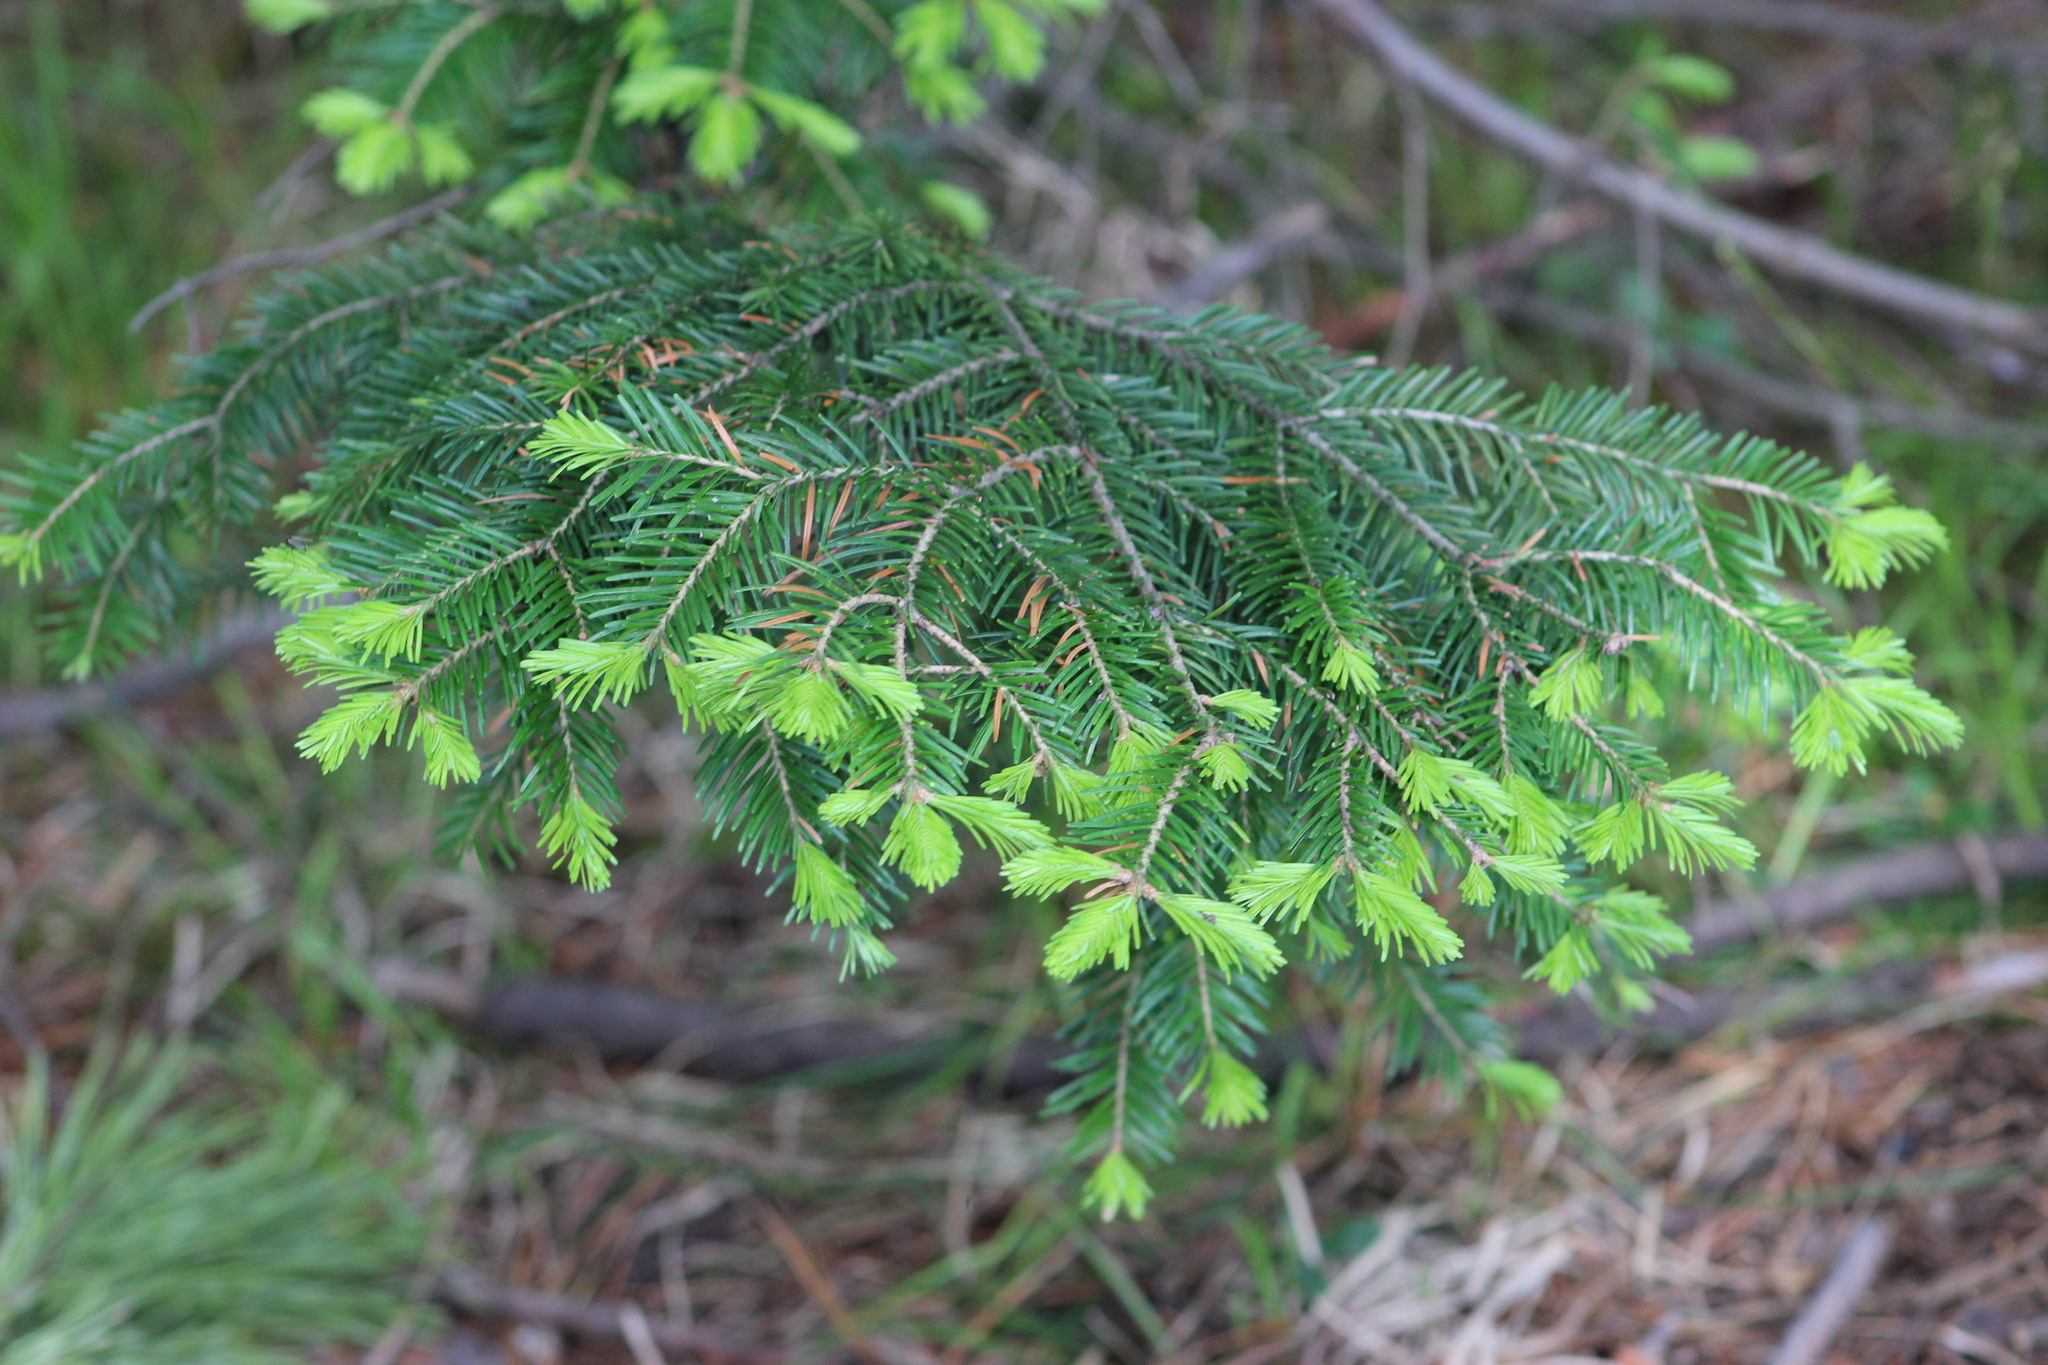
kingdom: Plantae
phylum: Tracheophyta
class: Pinopsida
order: Pinales
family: Pinaceae
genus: Abies
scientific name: Abies sibirica
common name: Siberian fir
